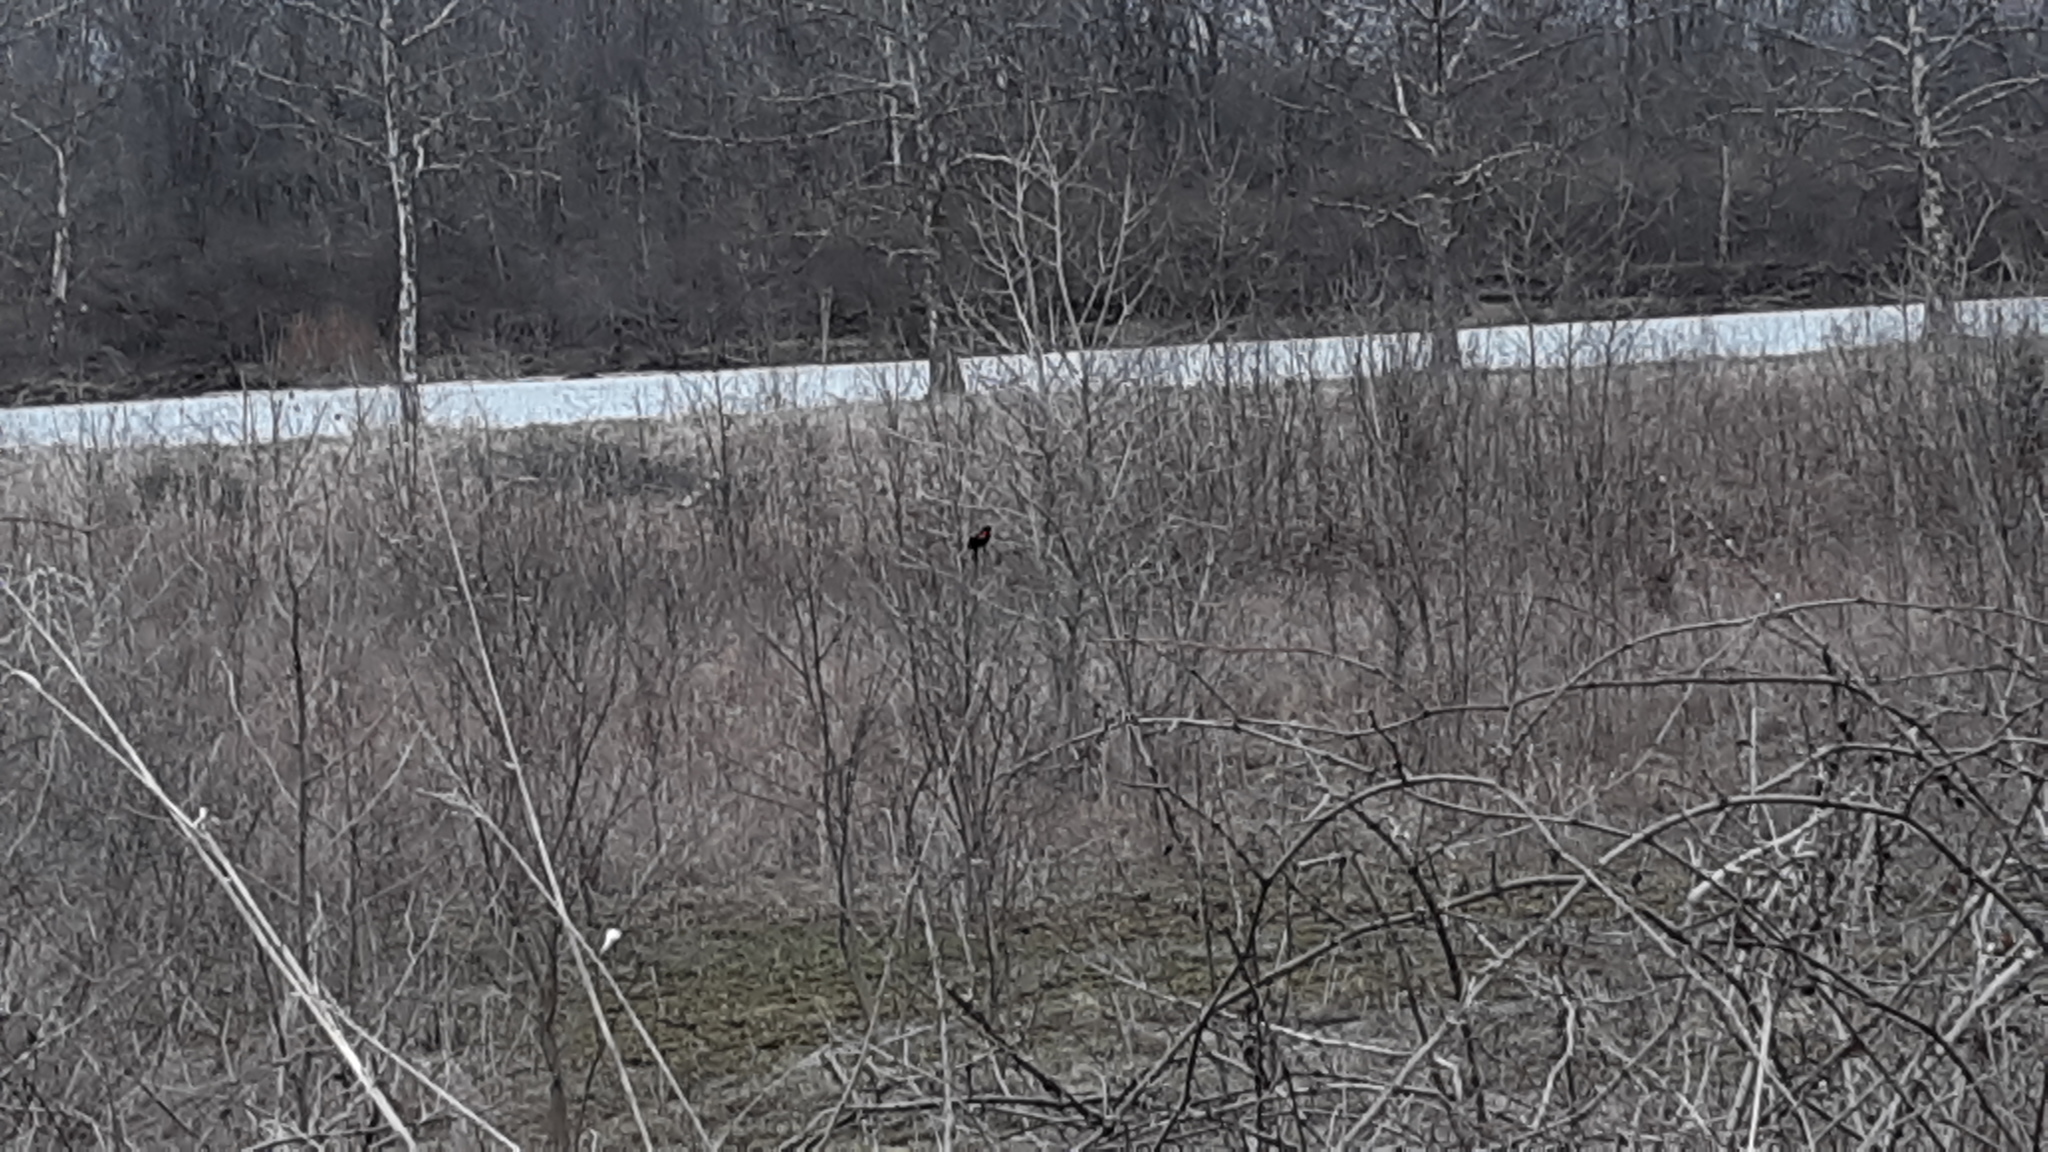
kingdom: Animalia
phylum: Chordata
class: Aves
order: Passeriformes
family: Icteridae
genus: Agelaius
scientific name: Agelaius phoeniceus
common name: Red-winged blackbird
